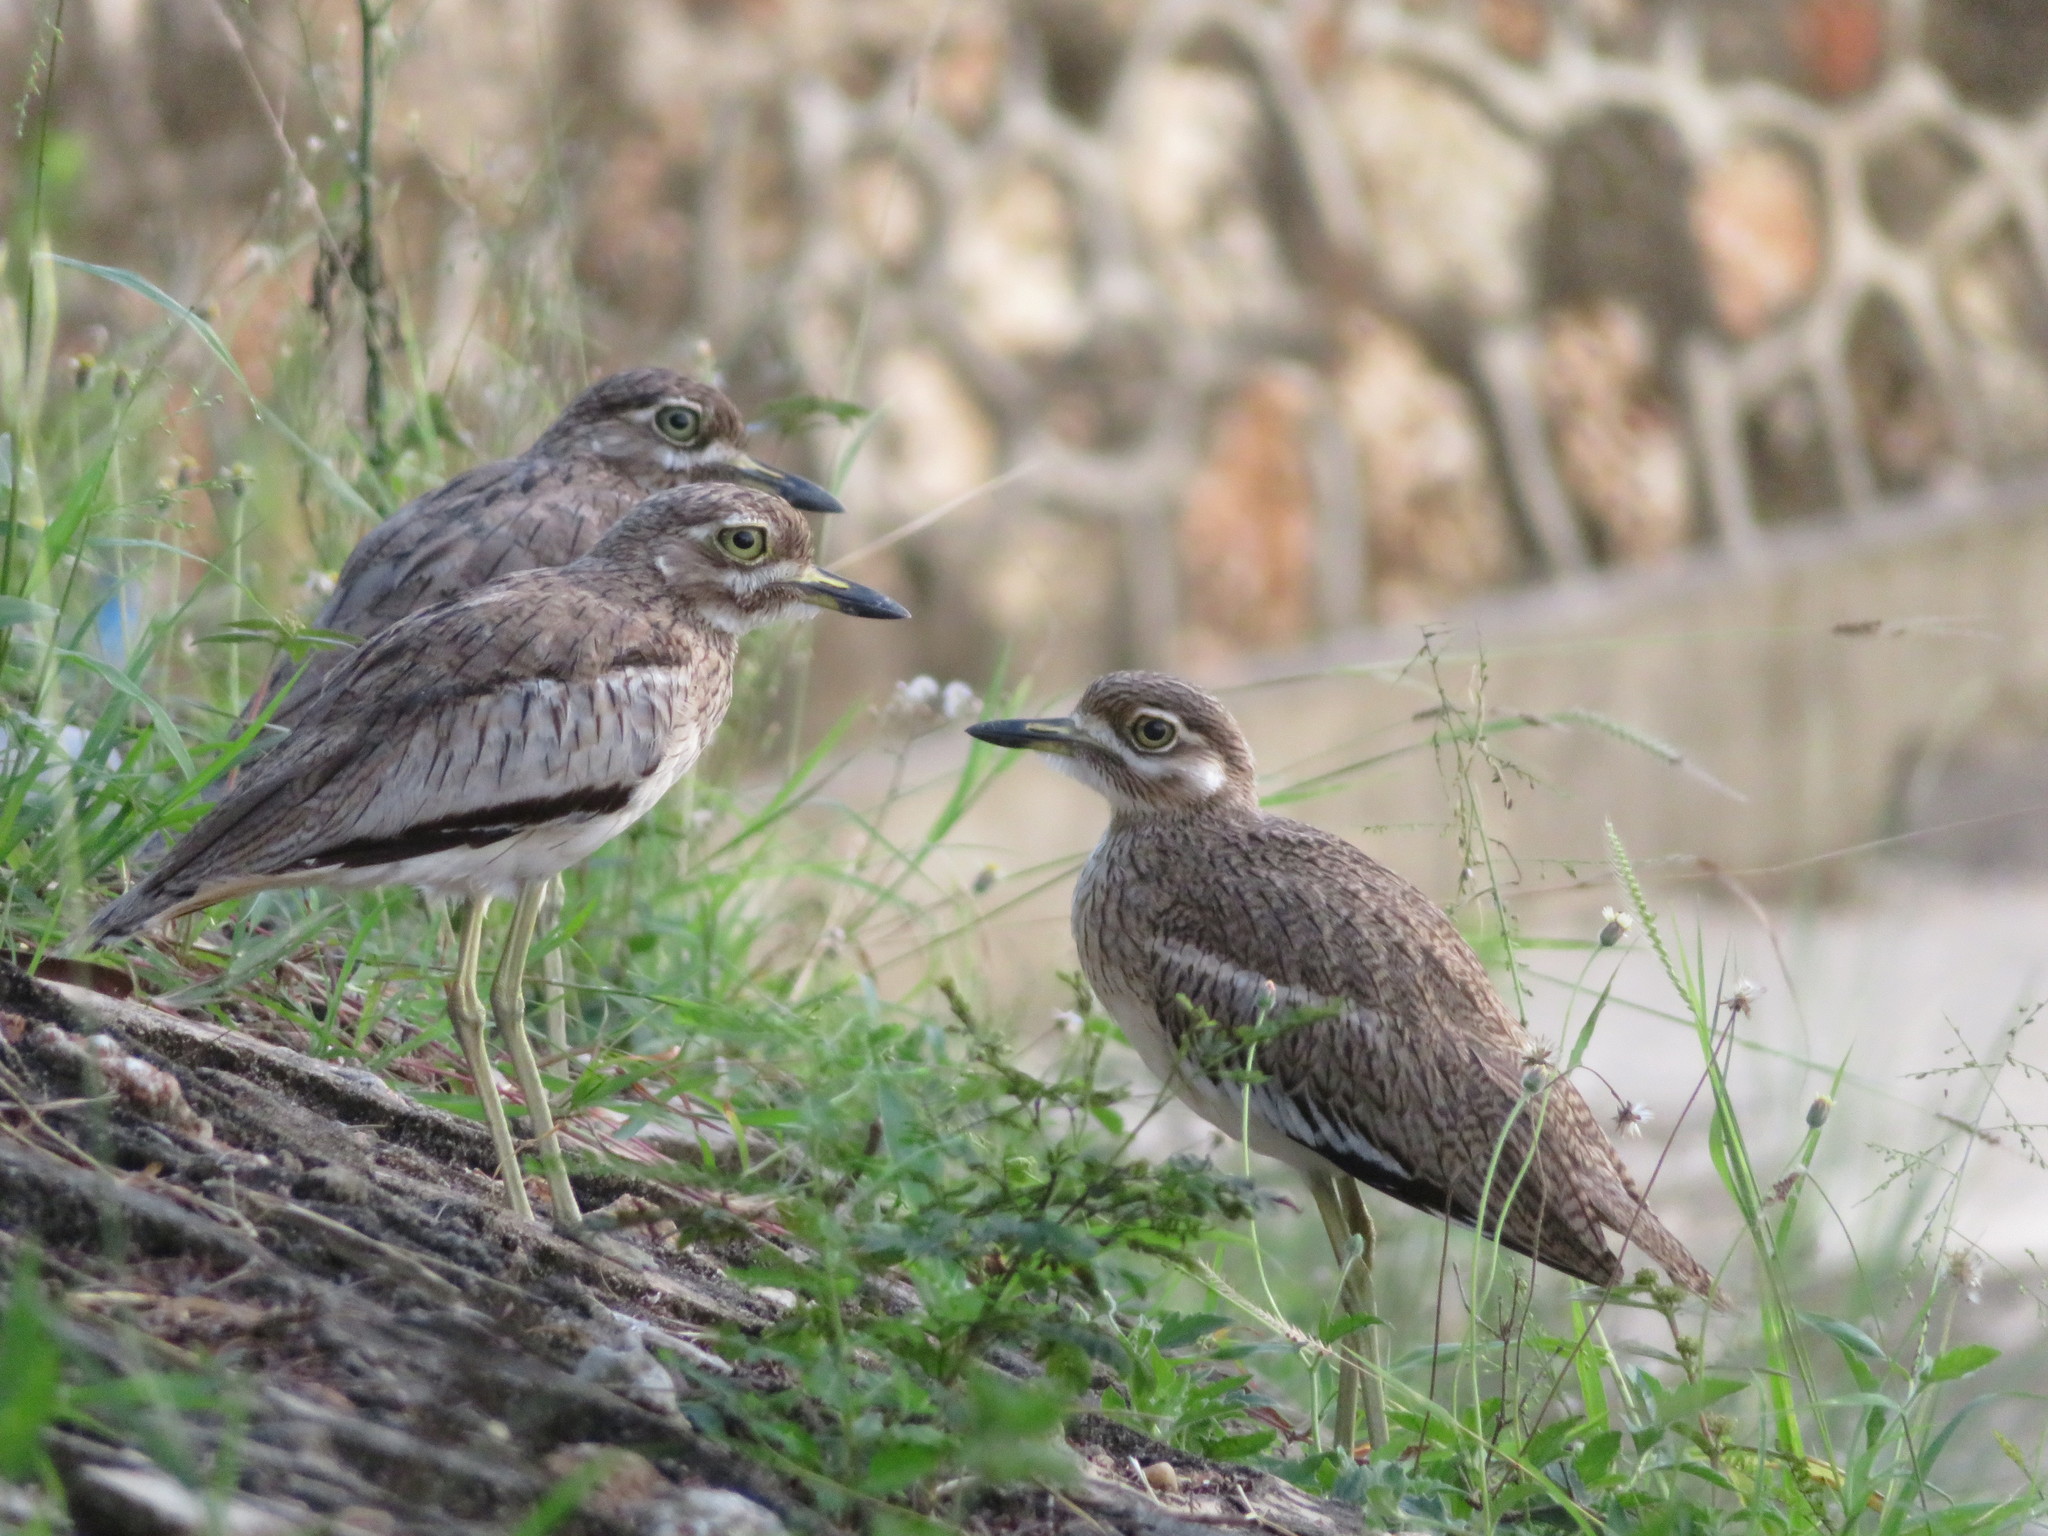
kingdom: Animalia
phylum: Chordata
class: Aves
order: Charadriiformes
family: Burhinidae
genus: Burhinus
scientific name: Burhinus vermiculatus
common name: Water thick-knee
